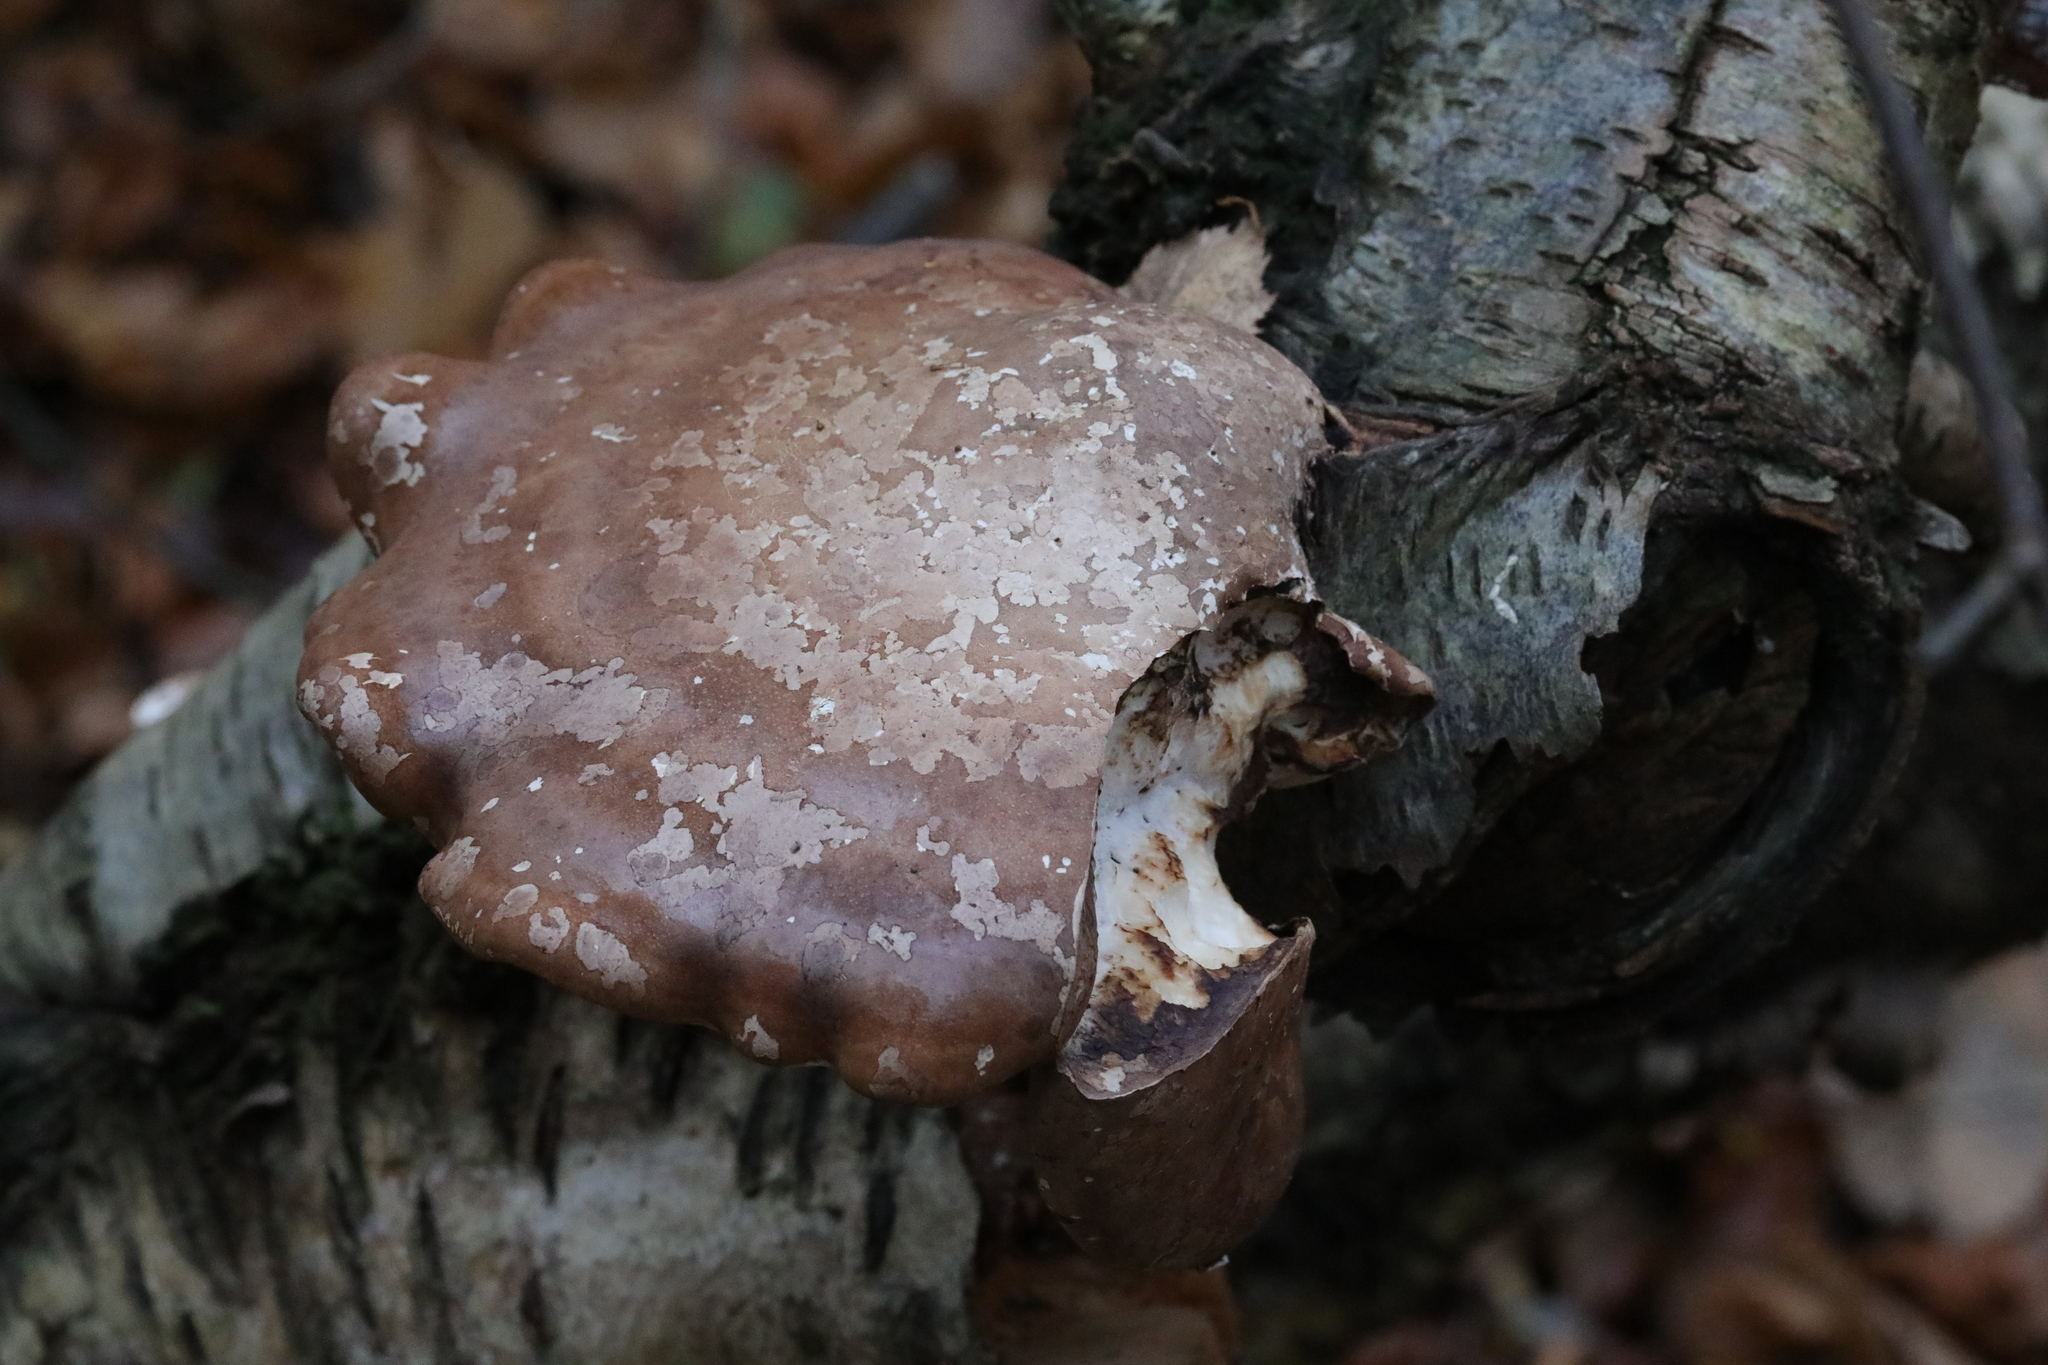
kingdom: Fungi
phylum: Basidiomycota
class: Agaricomycetes
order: Polyporales
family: Fomitopsidaceae
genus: Fomitopsis
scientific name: Fomitopsis betulina
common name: Birch polypore
